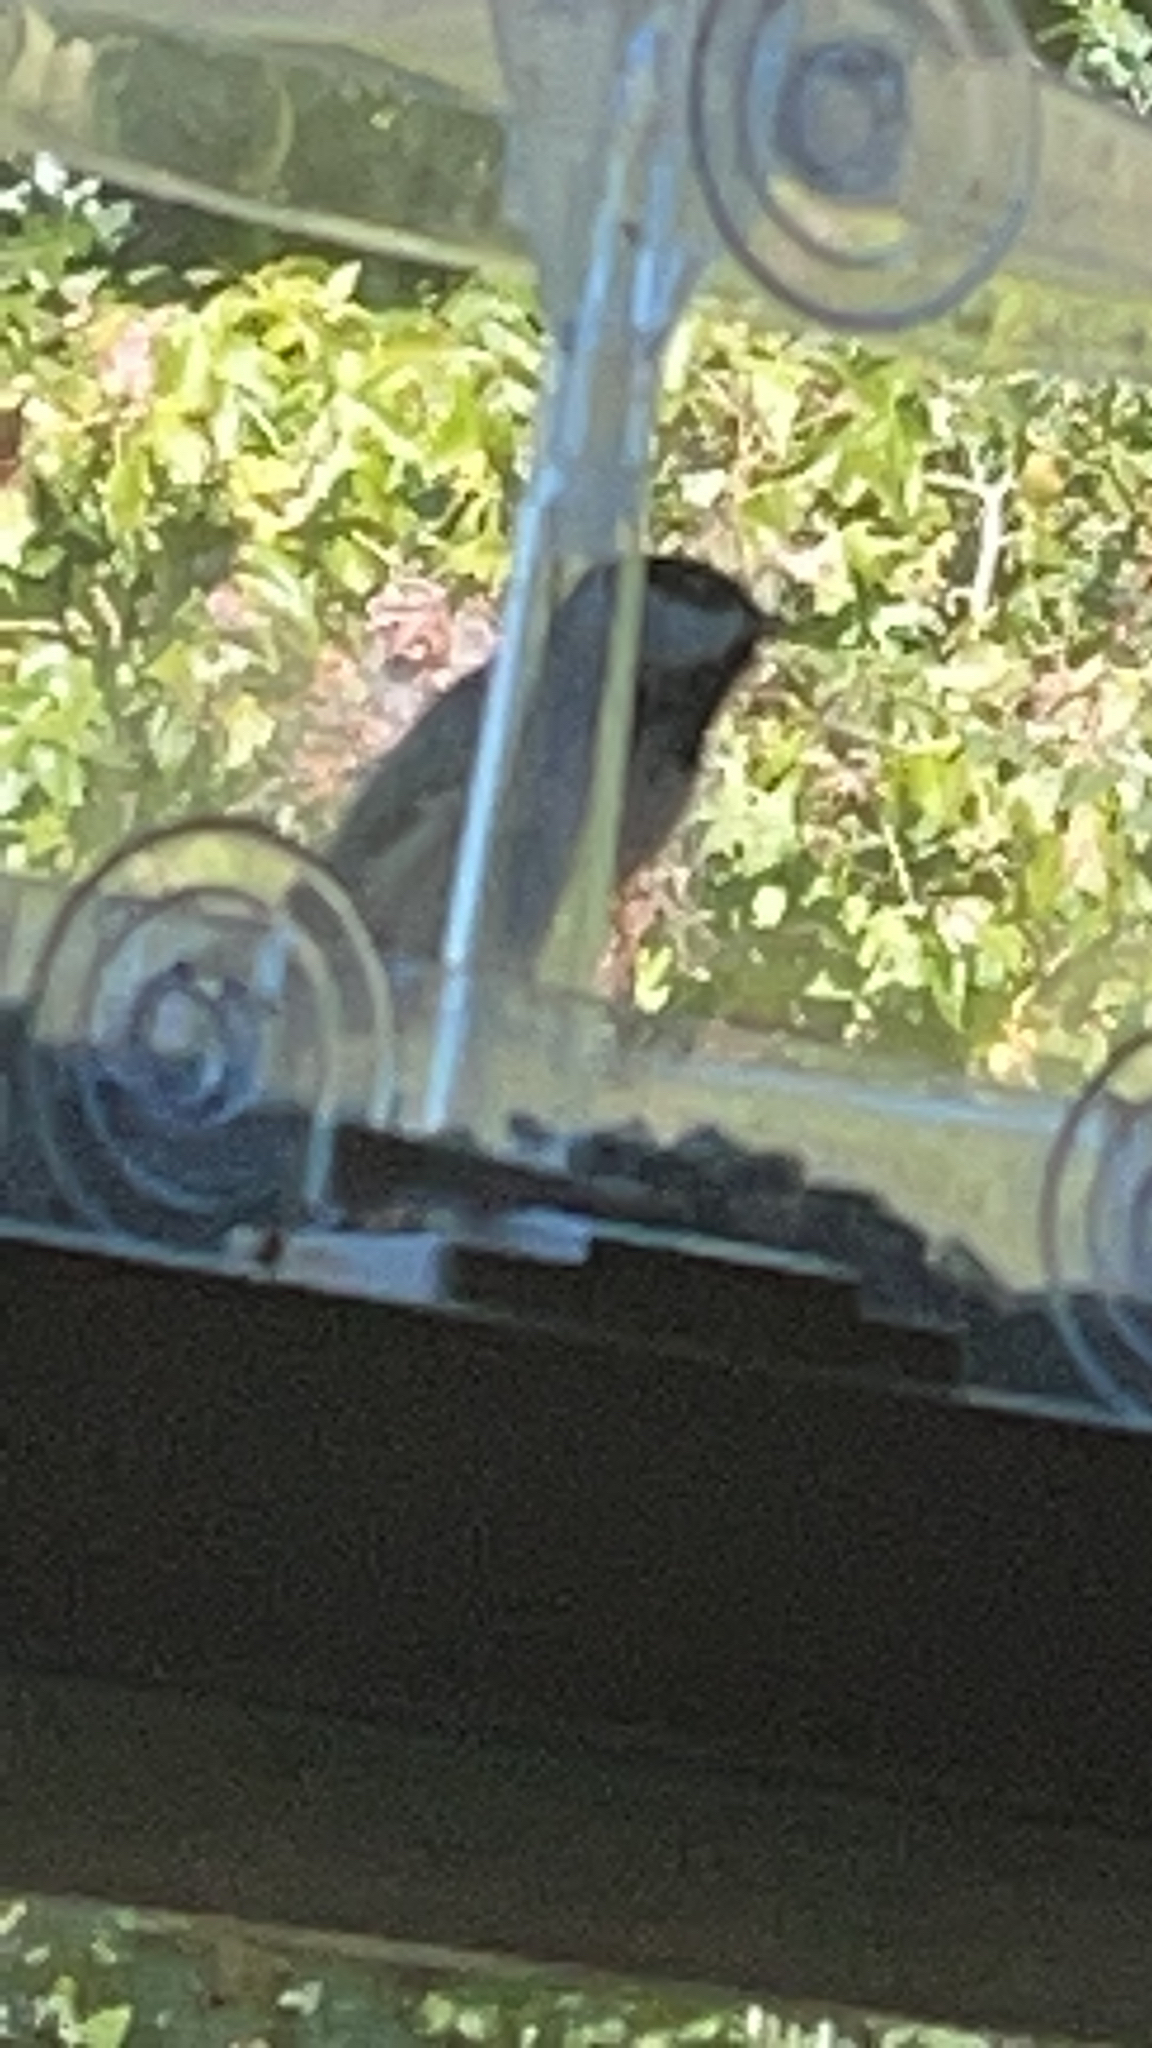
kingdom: Animalia
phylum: Chordata
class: Aves
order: Passeriformes
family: Paridae
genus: Poecile
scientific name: Poecile carolinensis
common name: Carolina chickadee
